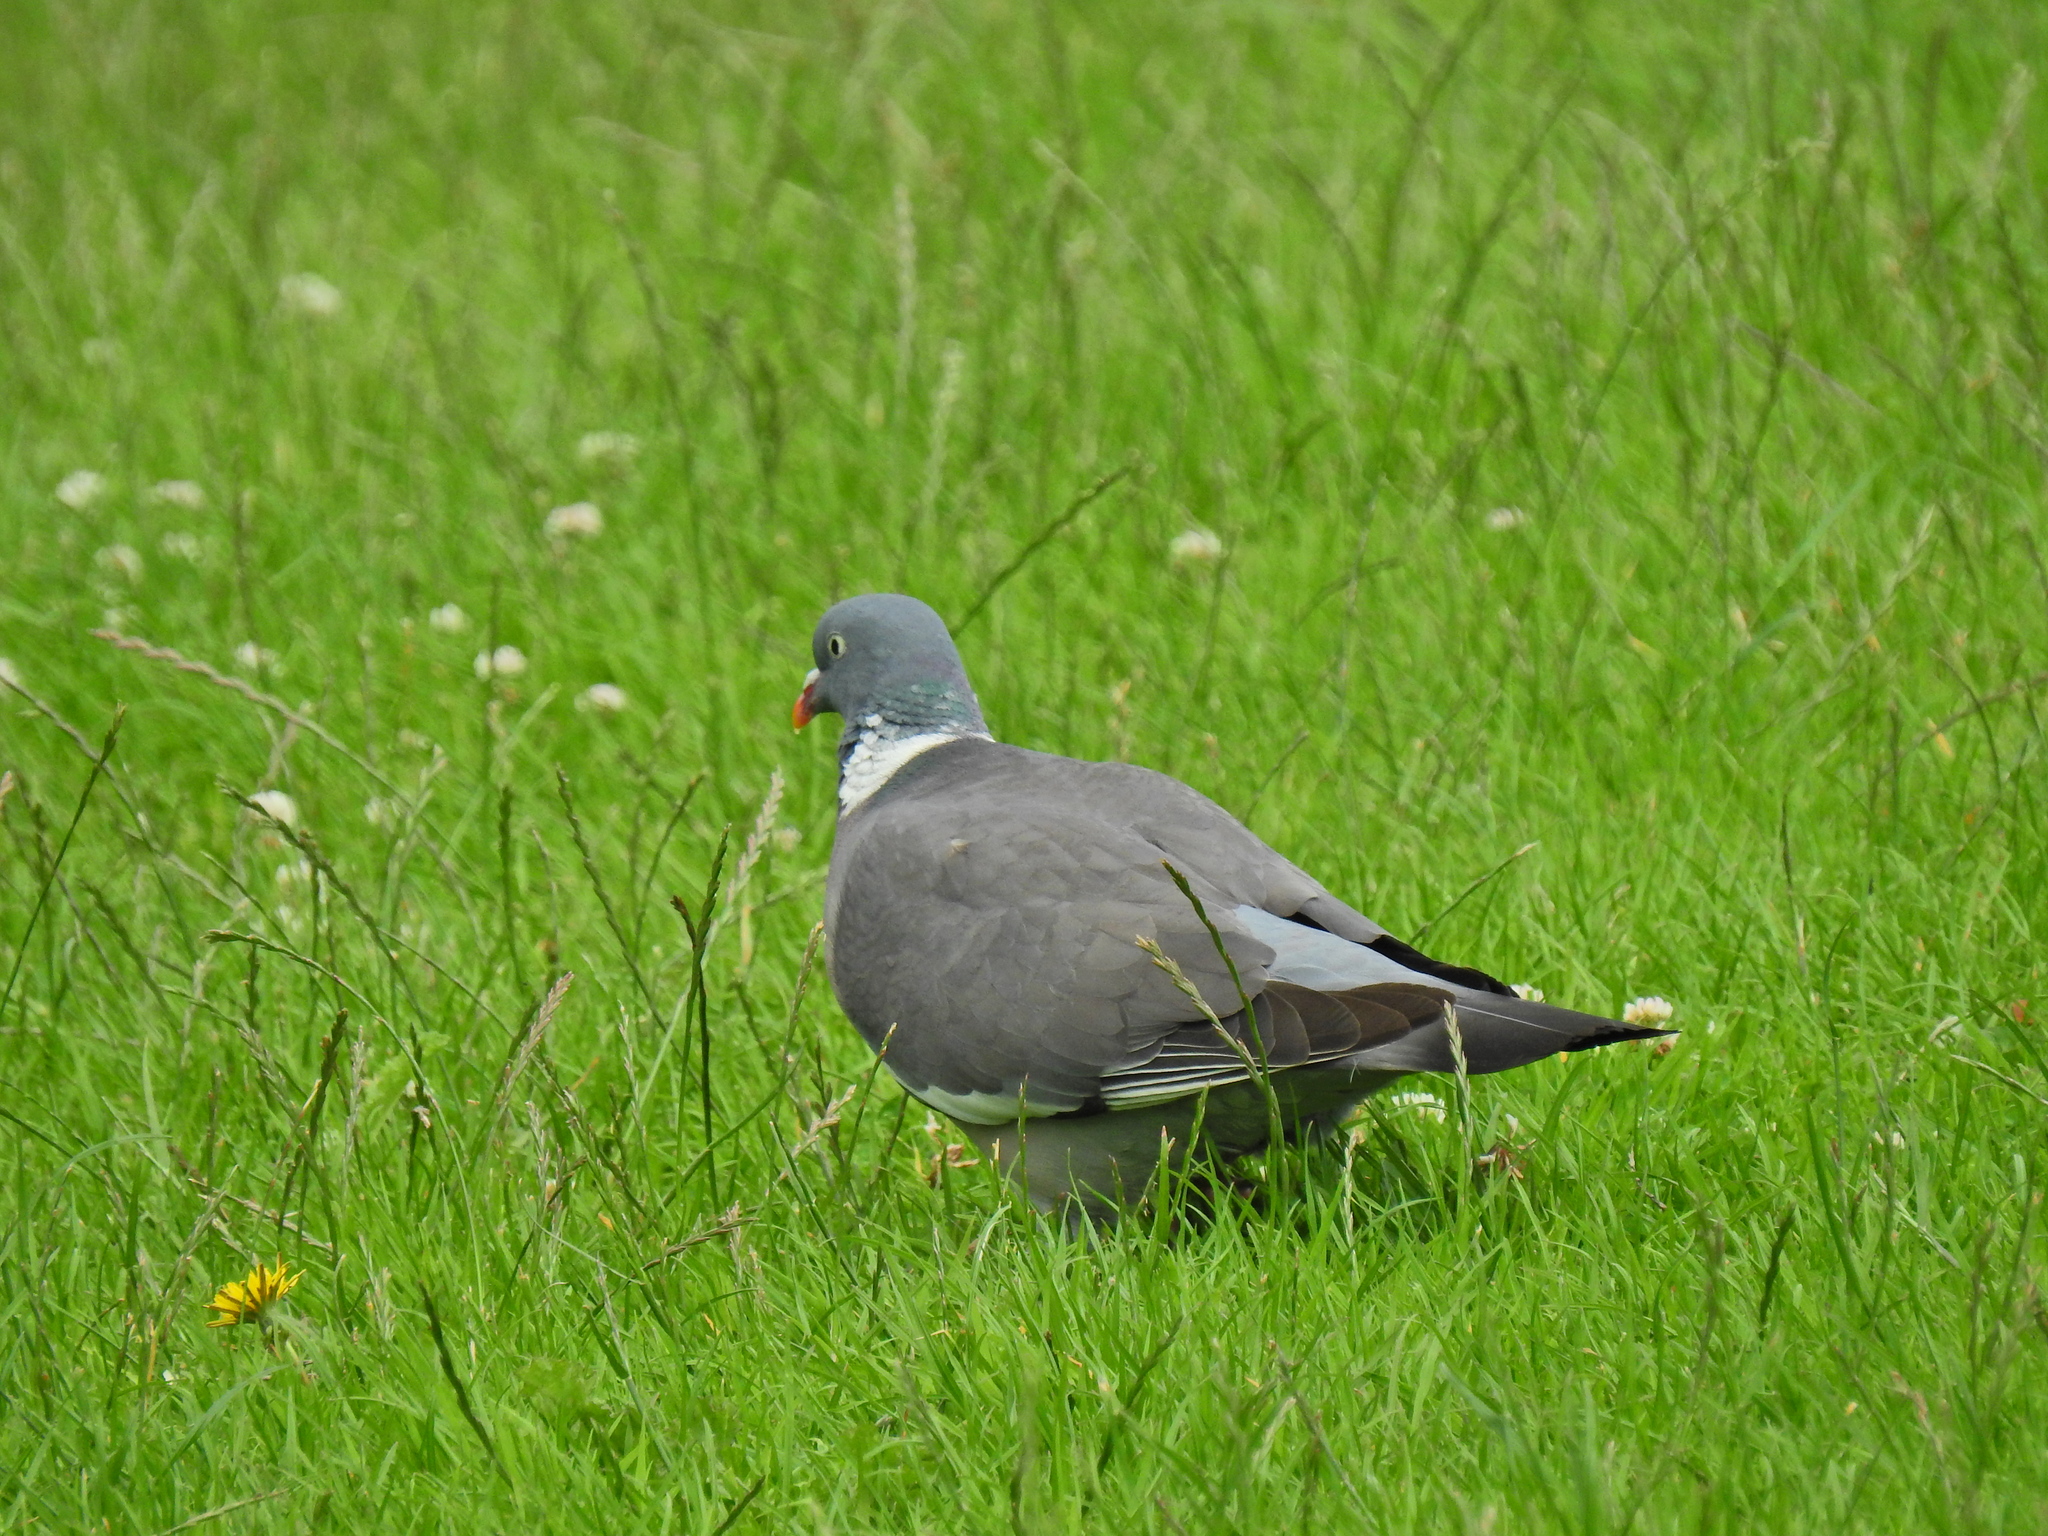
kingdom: Animalia
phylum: Chordata
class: Aves
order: Columbiformes
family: Columbidae
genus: Columba
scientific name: Columba palumbus
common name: Common wood pigeon
